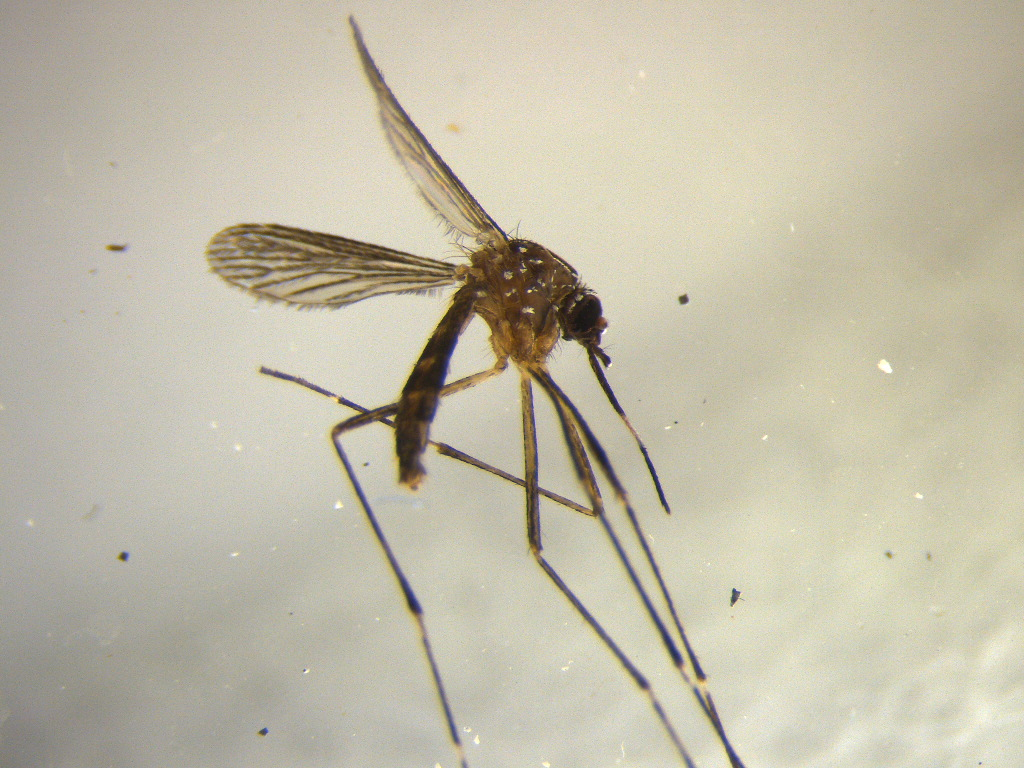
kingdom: Animalia
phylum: Arthropoda
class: Insecta
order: Diptera
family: Culicidae
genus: Aedes
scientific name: Aedes notoscriptus
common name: Australian backyard mosquito
